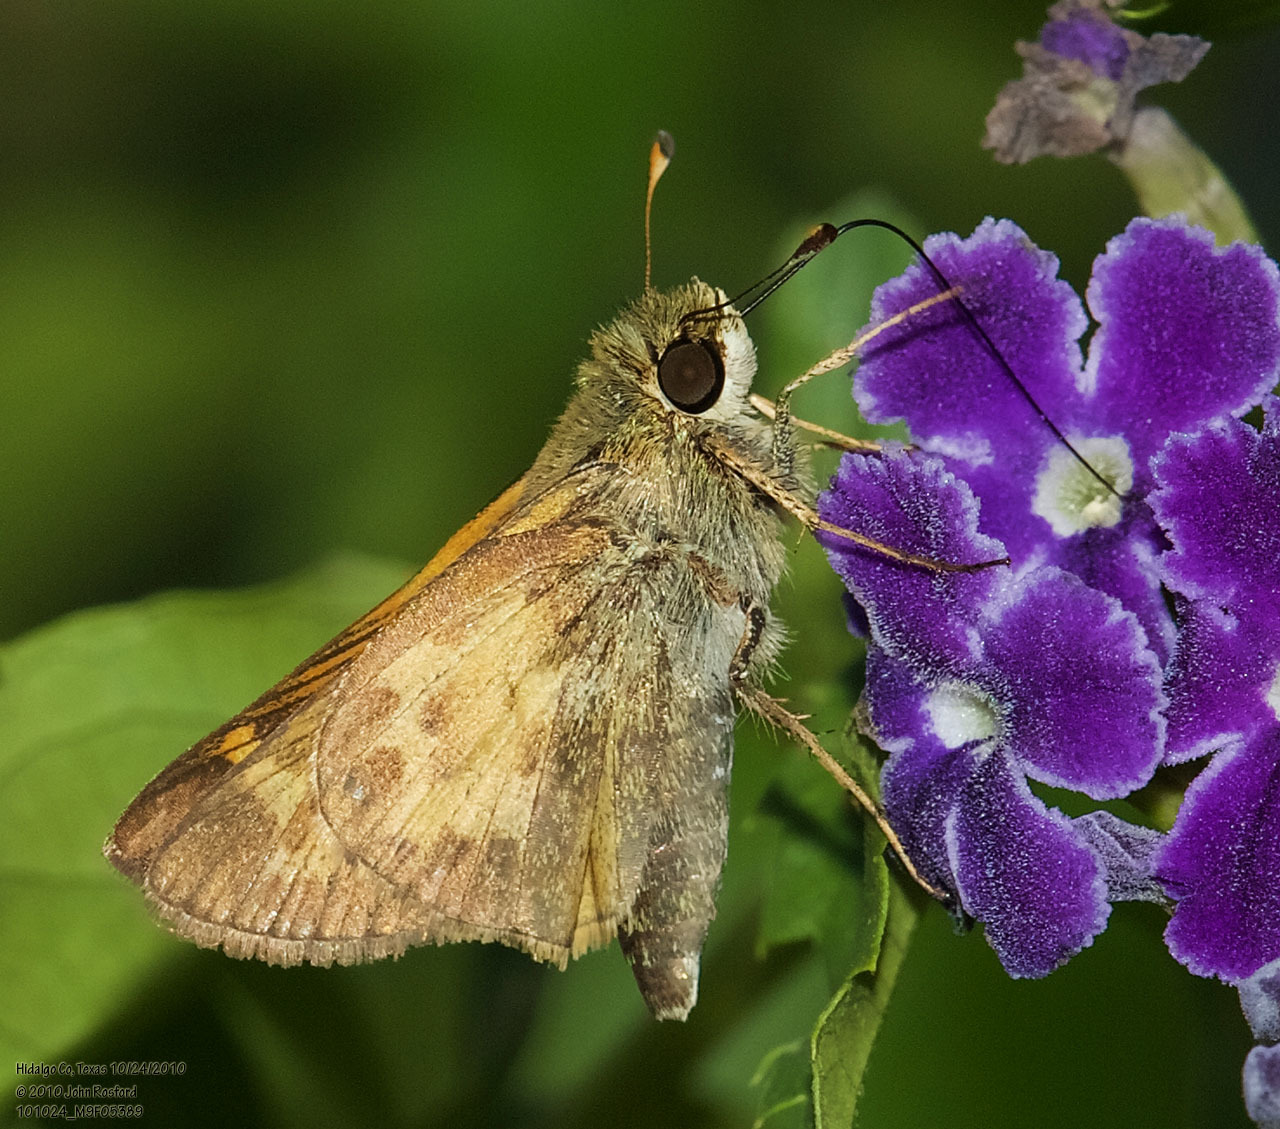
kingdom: Animalia
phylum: Arthropoda
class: Insecta
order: Lepidoptera
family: Hesperiidae
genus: Atalopedes
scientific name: Atalopedes
